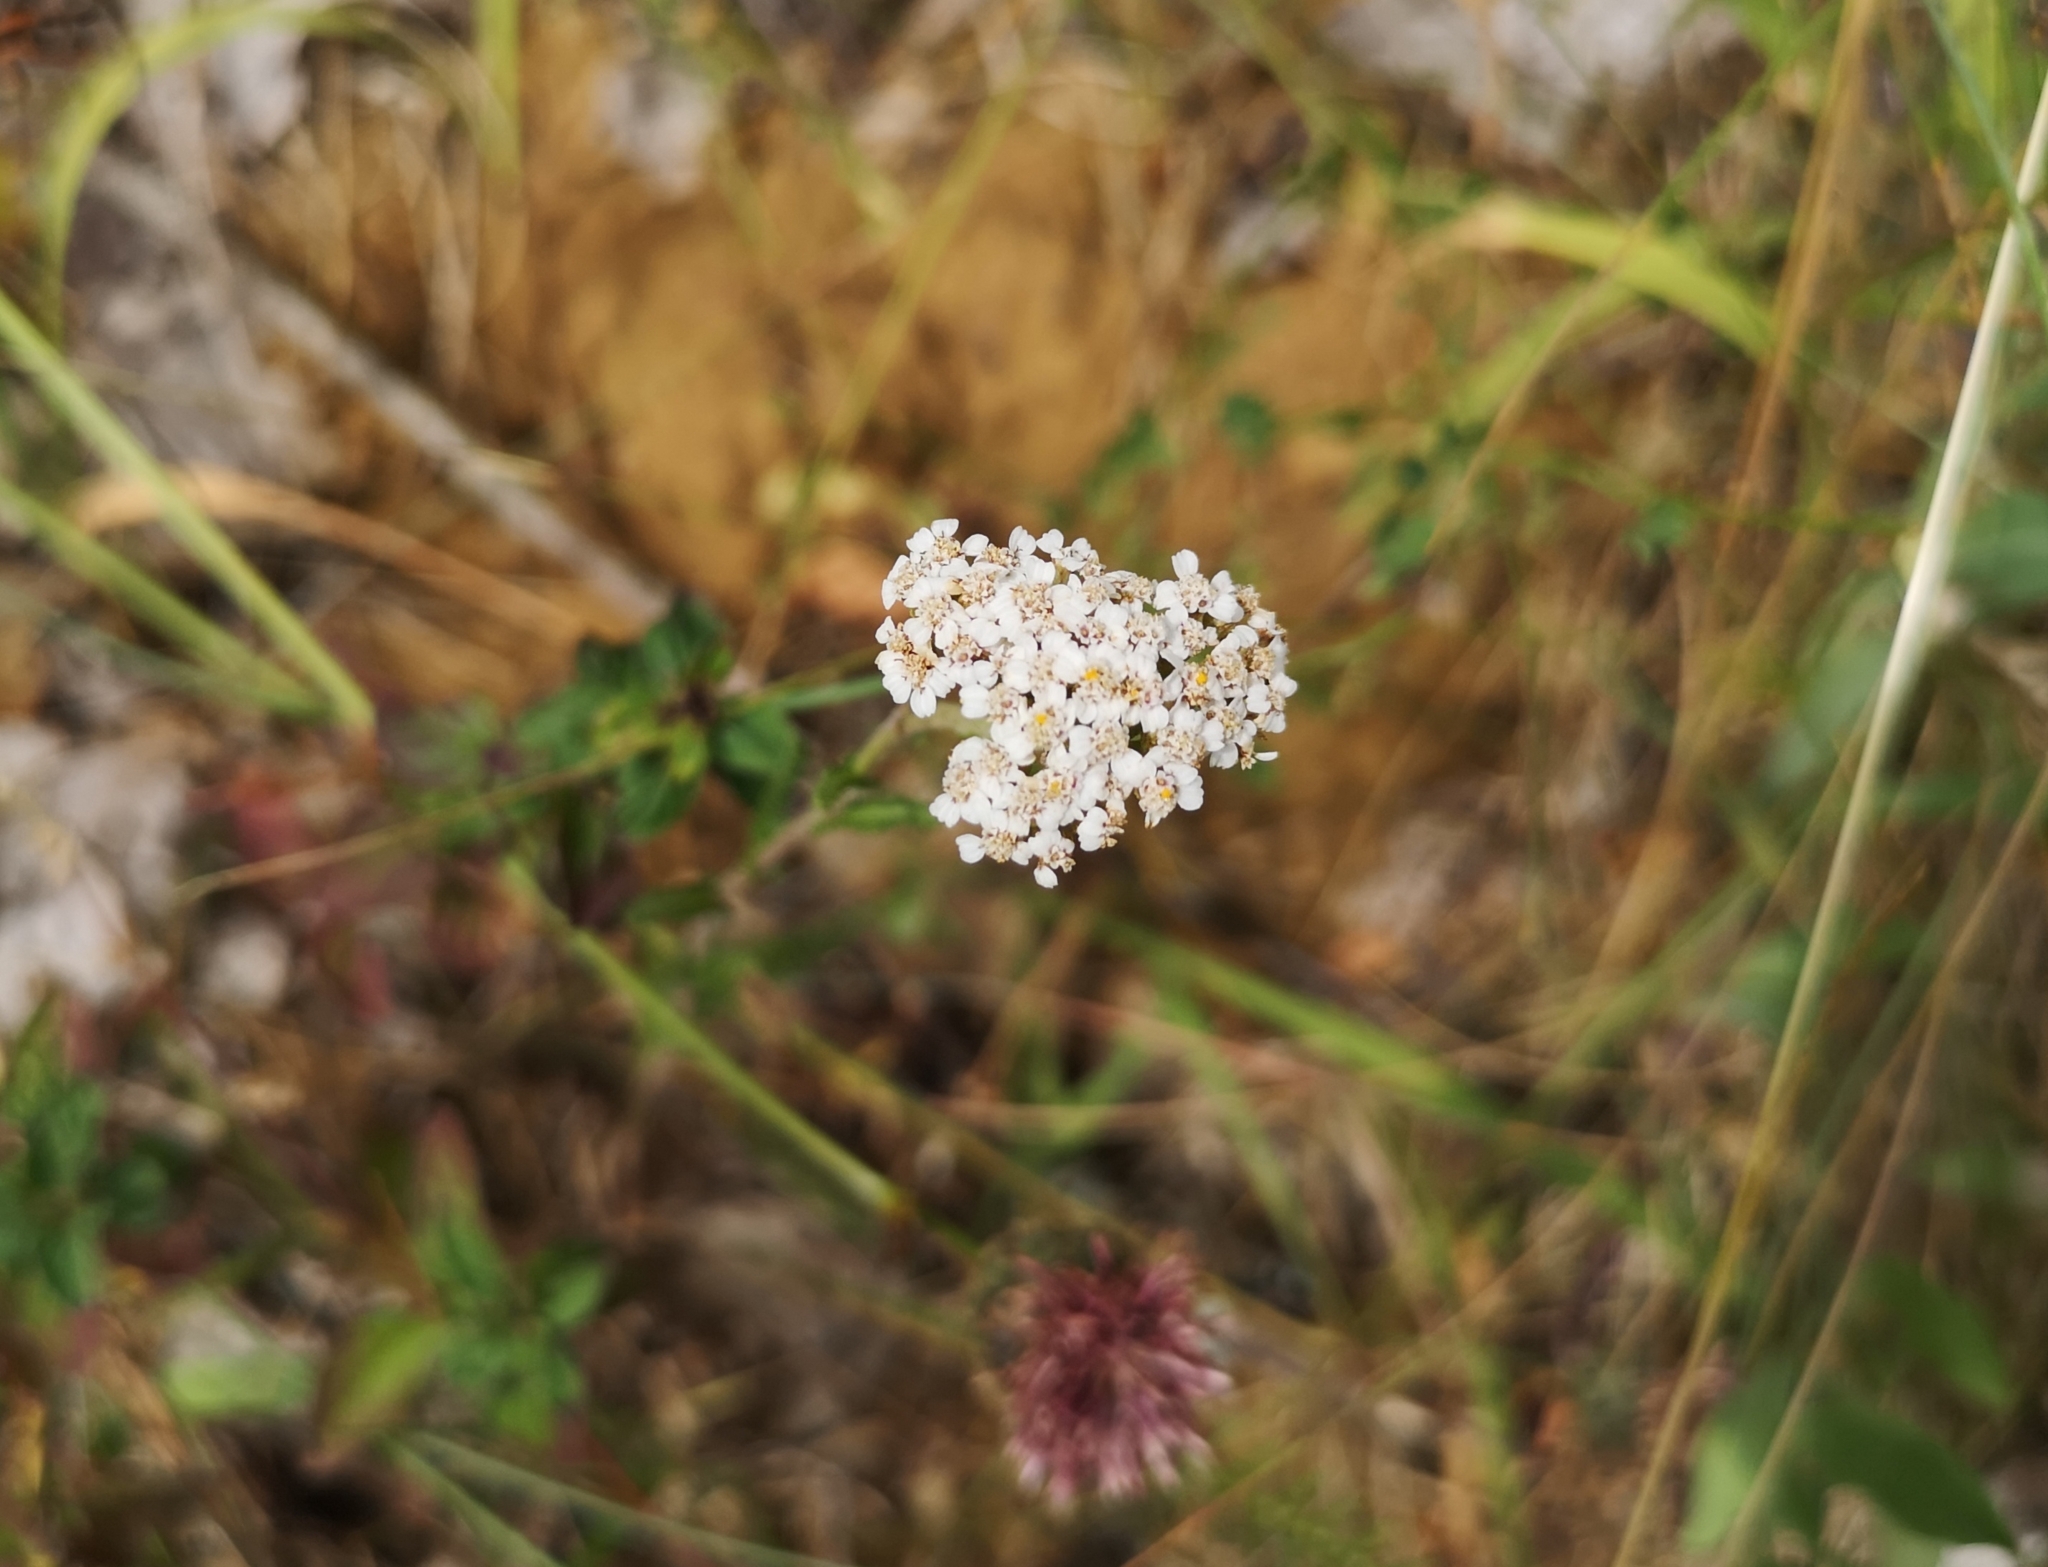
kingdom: Plantae
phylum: Tracheophyta
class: Magnoliopsida
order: Asterales
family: Asteraceae
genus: Achillea
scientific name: Achillea millefolium
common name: Yarrow
